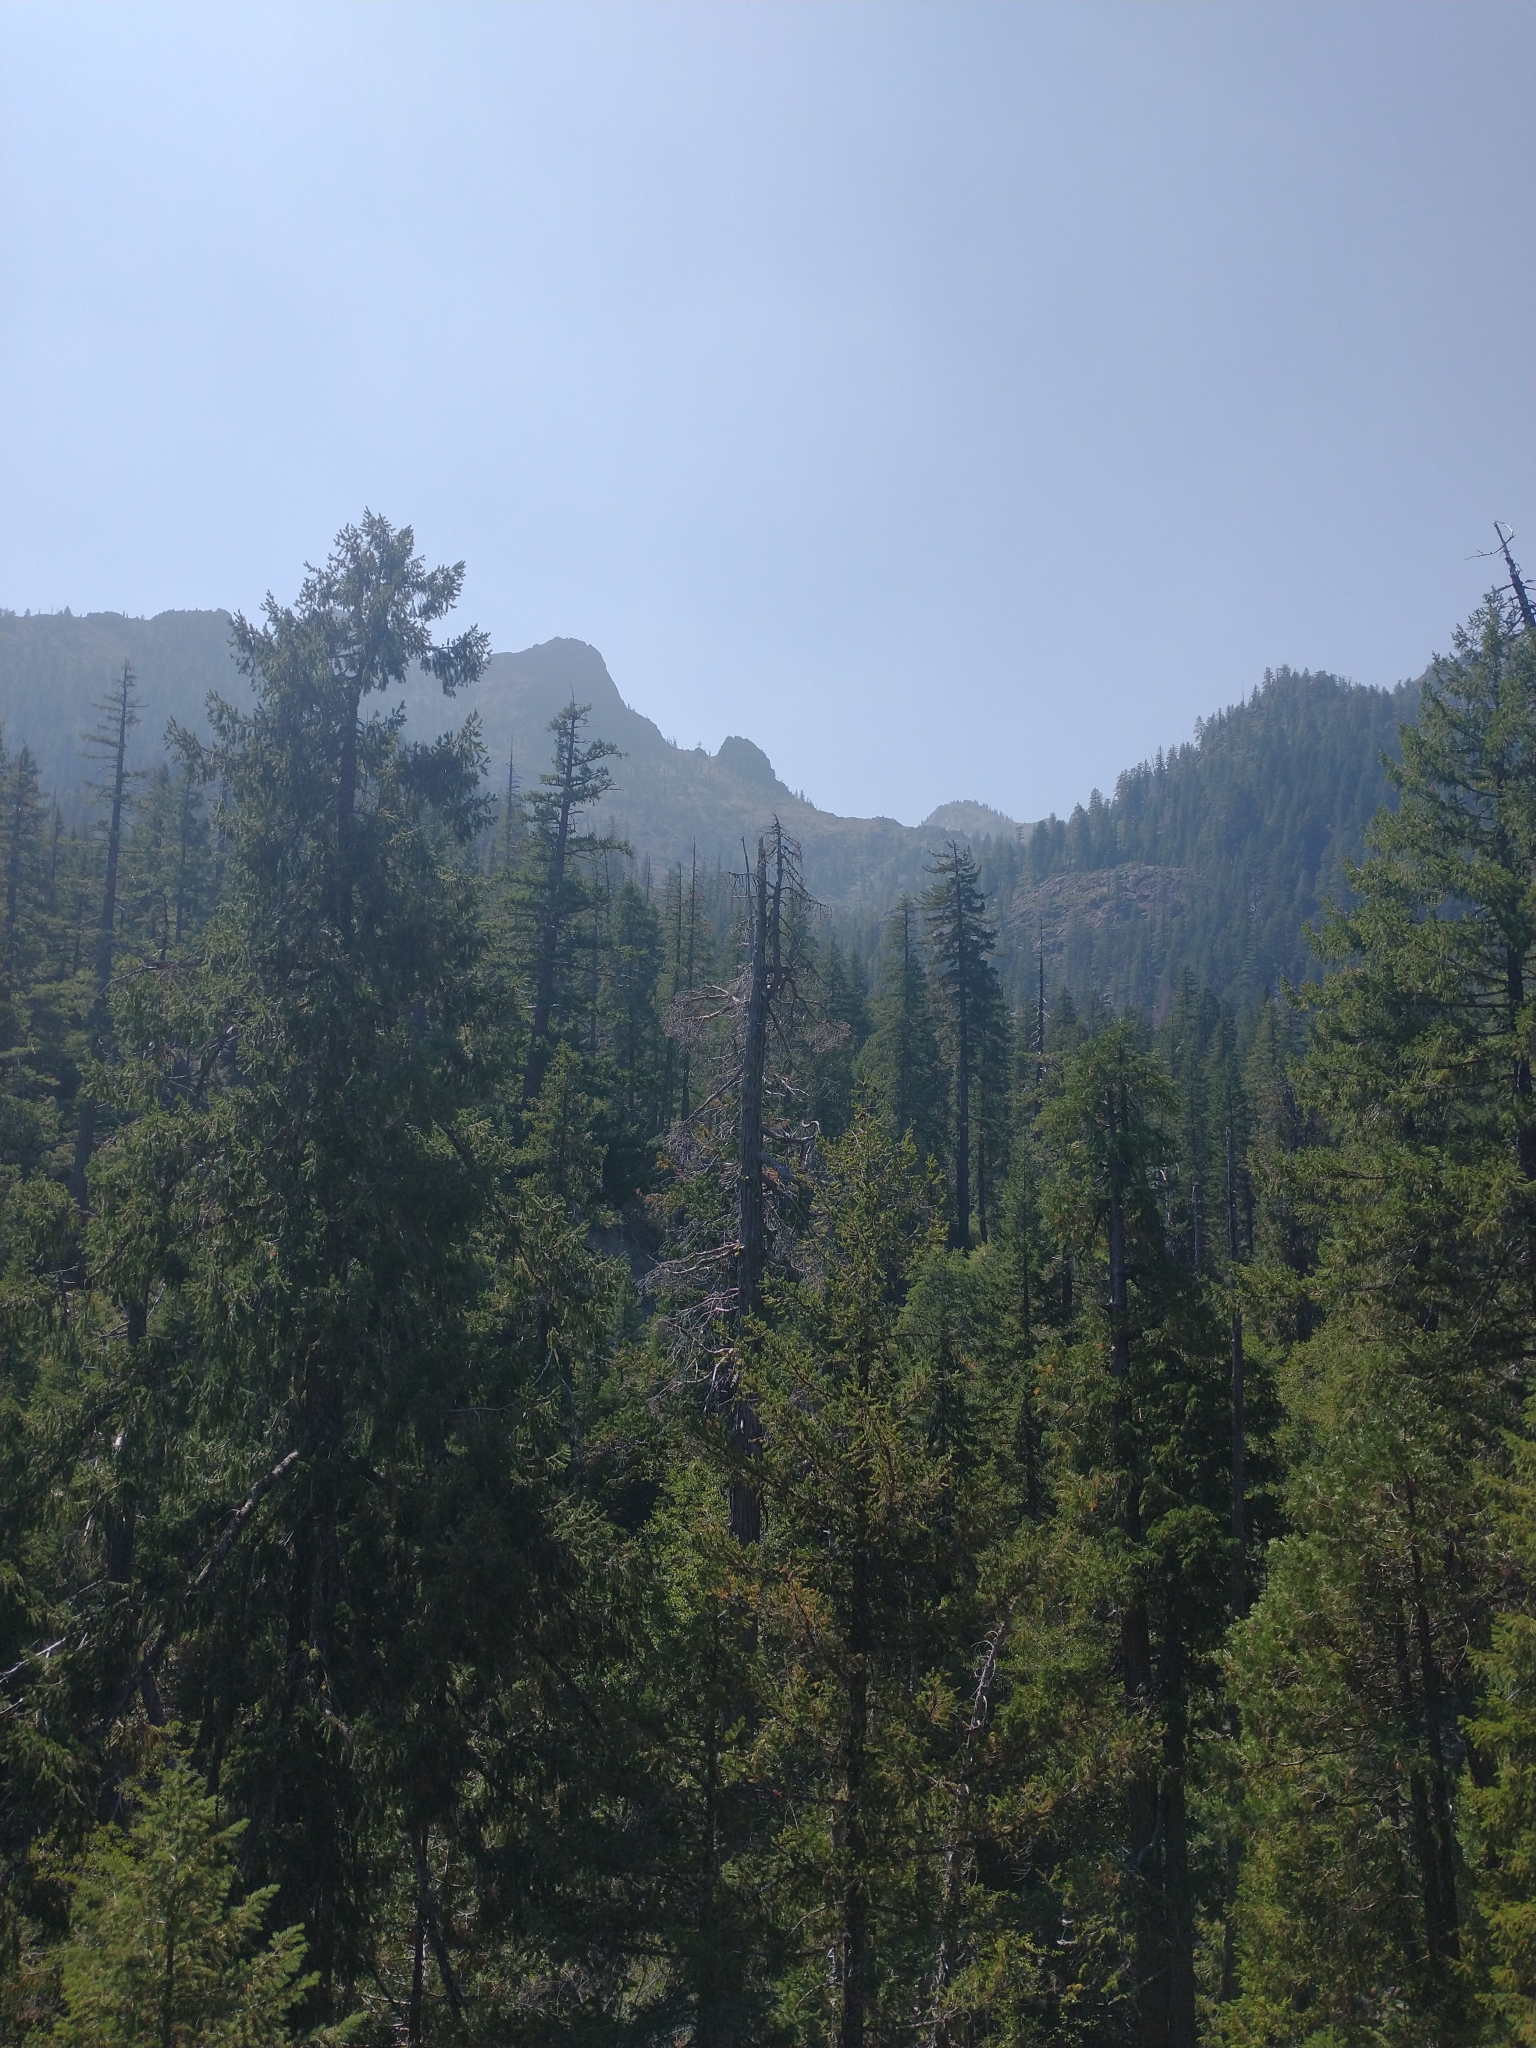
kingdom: Plantae
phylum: Tracheophyta
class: Pinopsida
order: Pinales
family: Pinaceae
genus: Pseudotsuga
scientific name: Pseudotsuga menziesii
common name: Douglas fir
